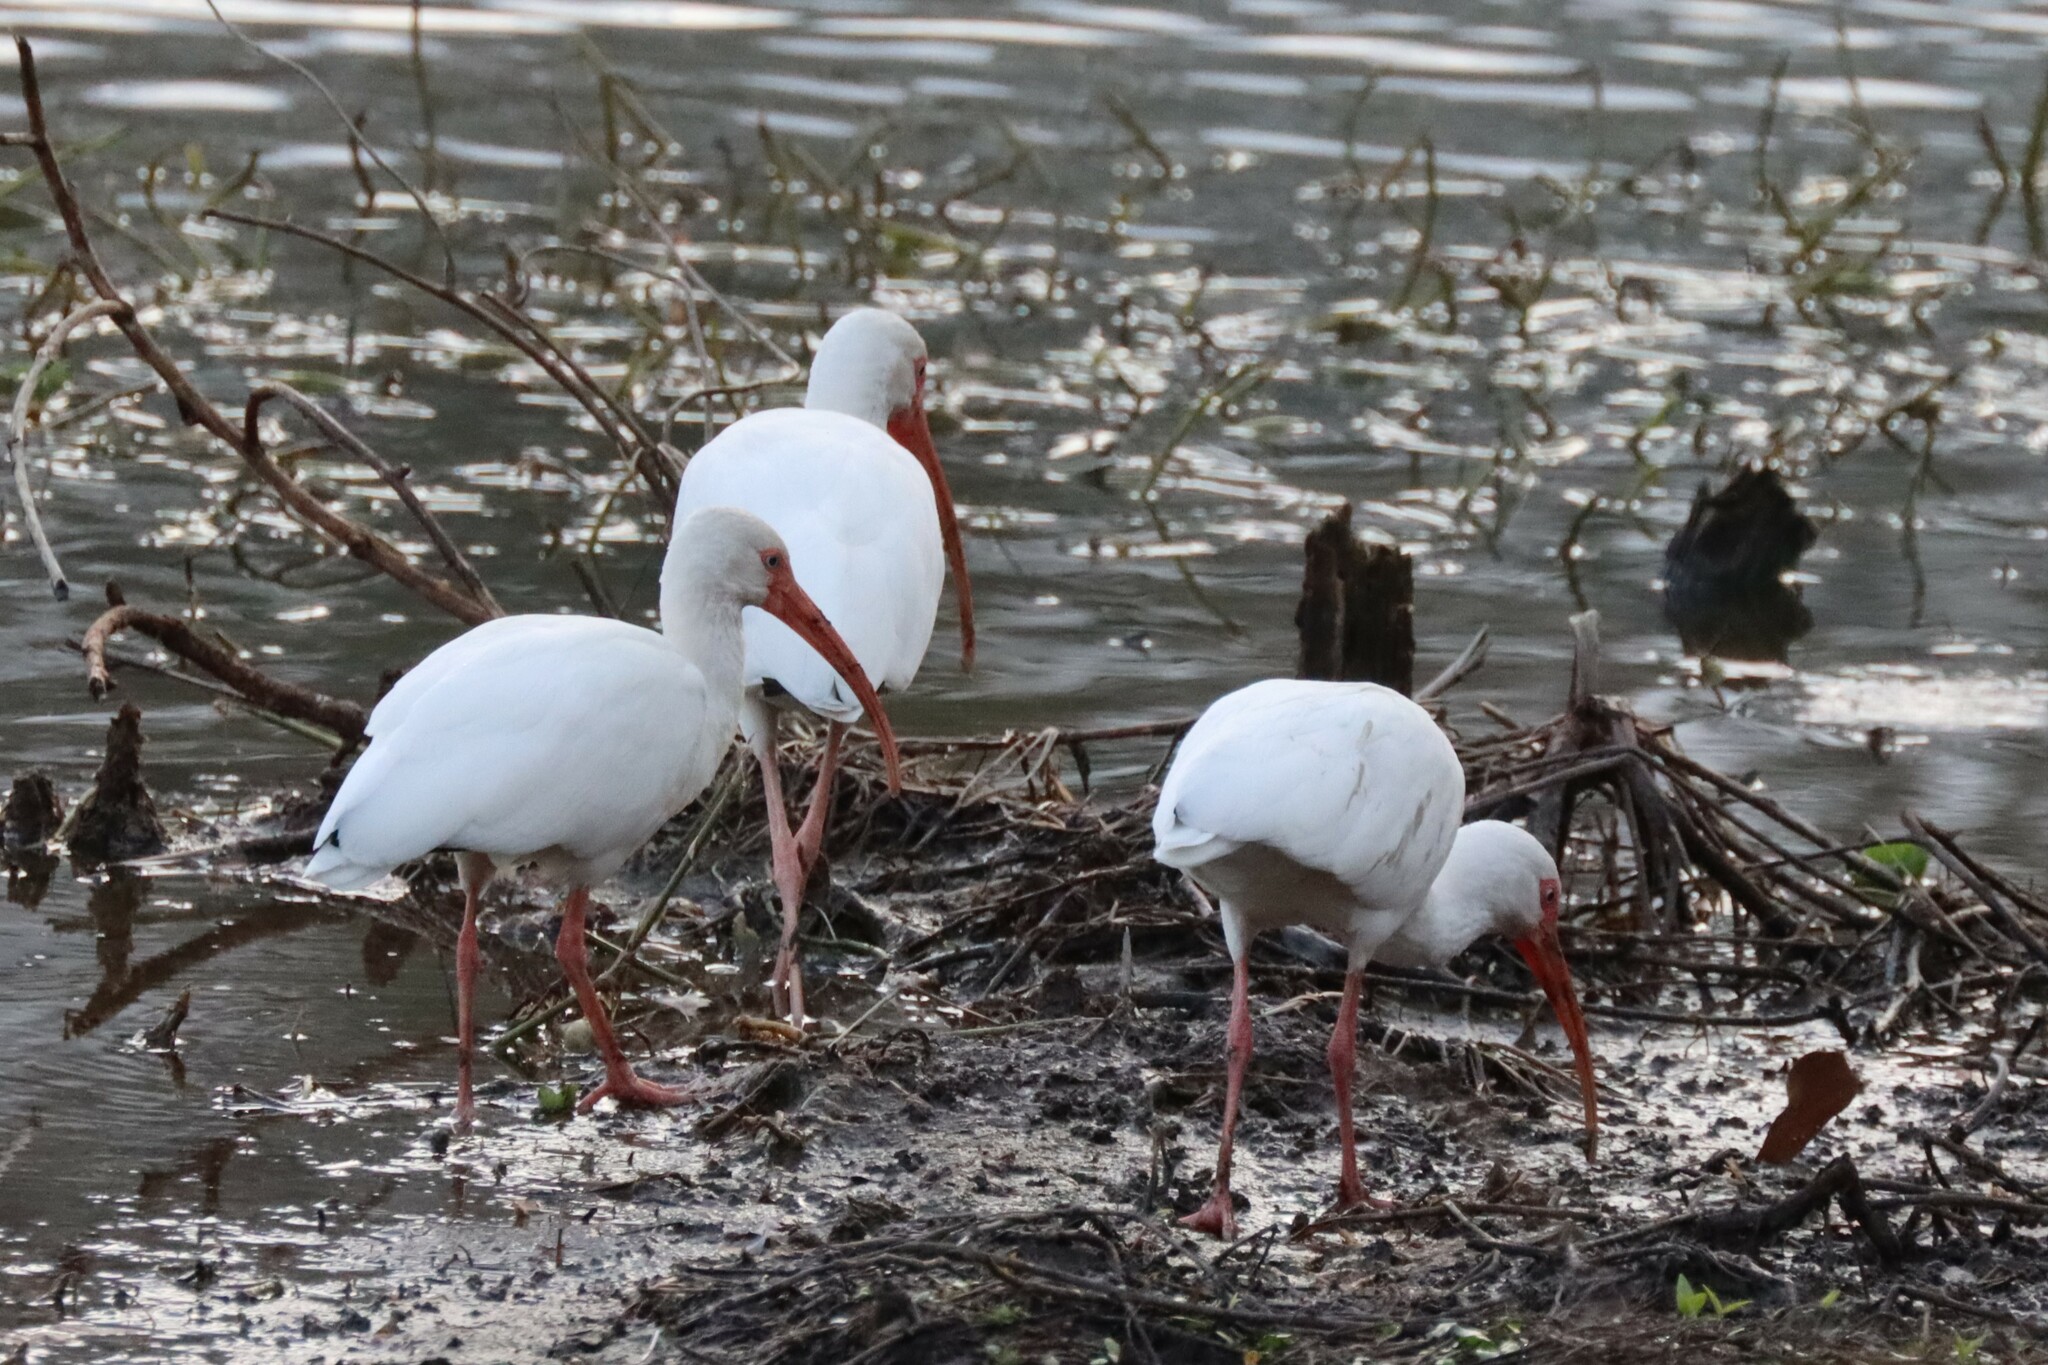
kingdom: Animalia
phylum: Chordata
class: Aves
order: Pelecaniformes
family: Threskiornithidae
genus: Eudocimus
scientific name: Eudocimus albus
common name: White ibis
